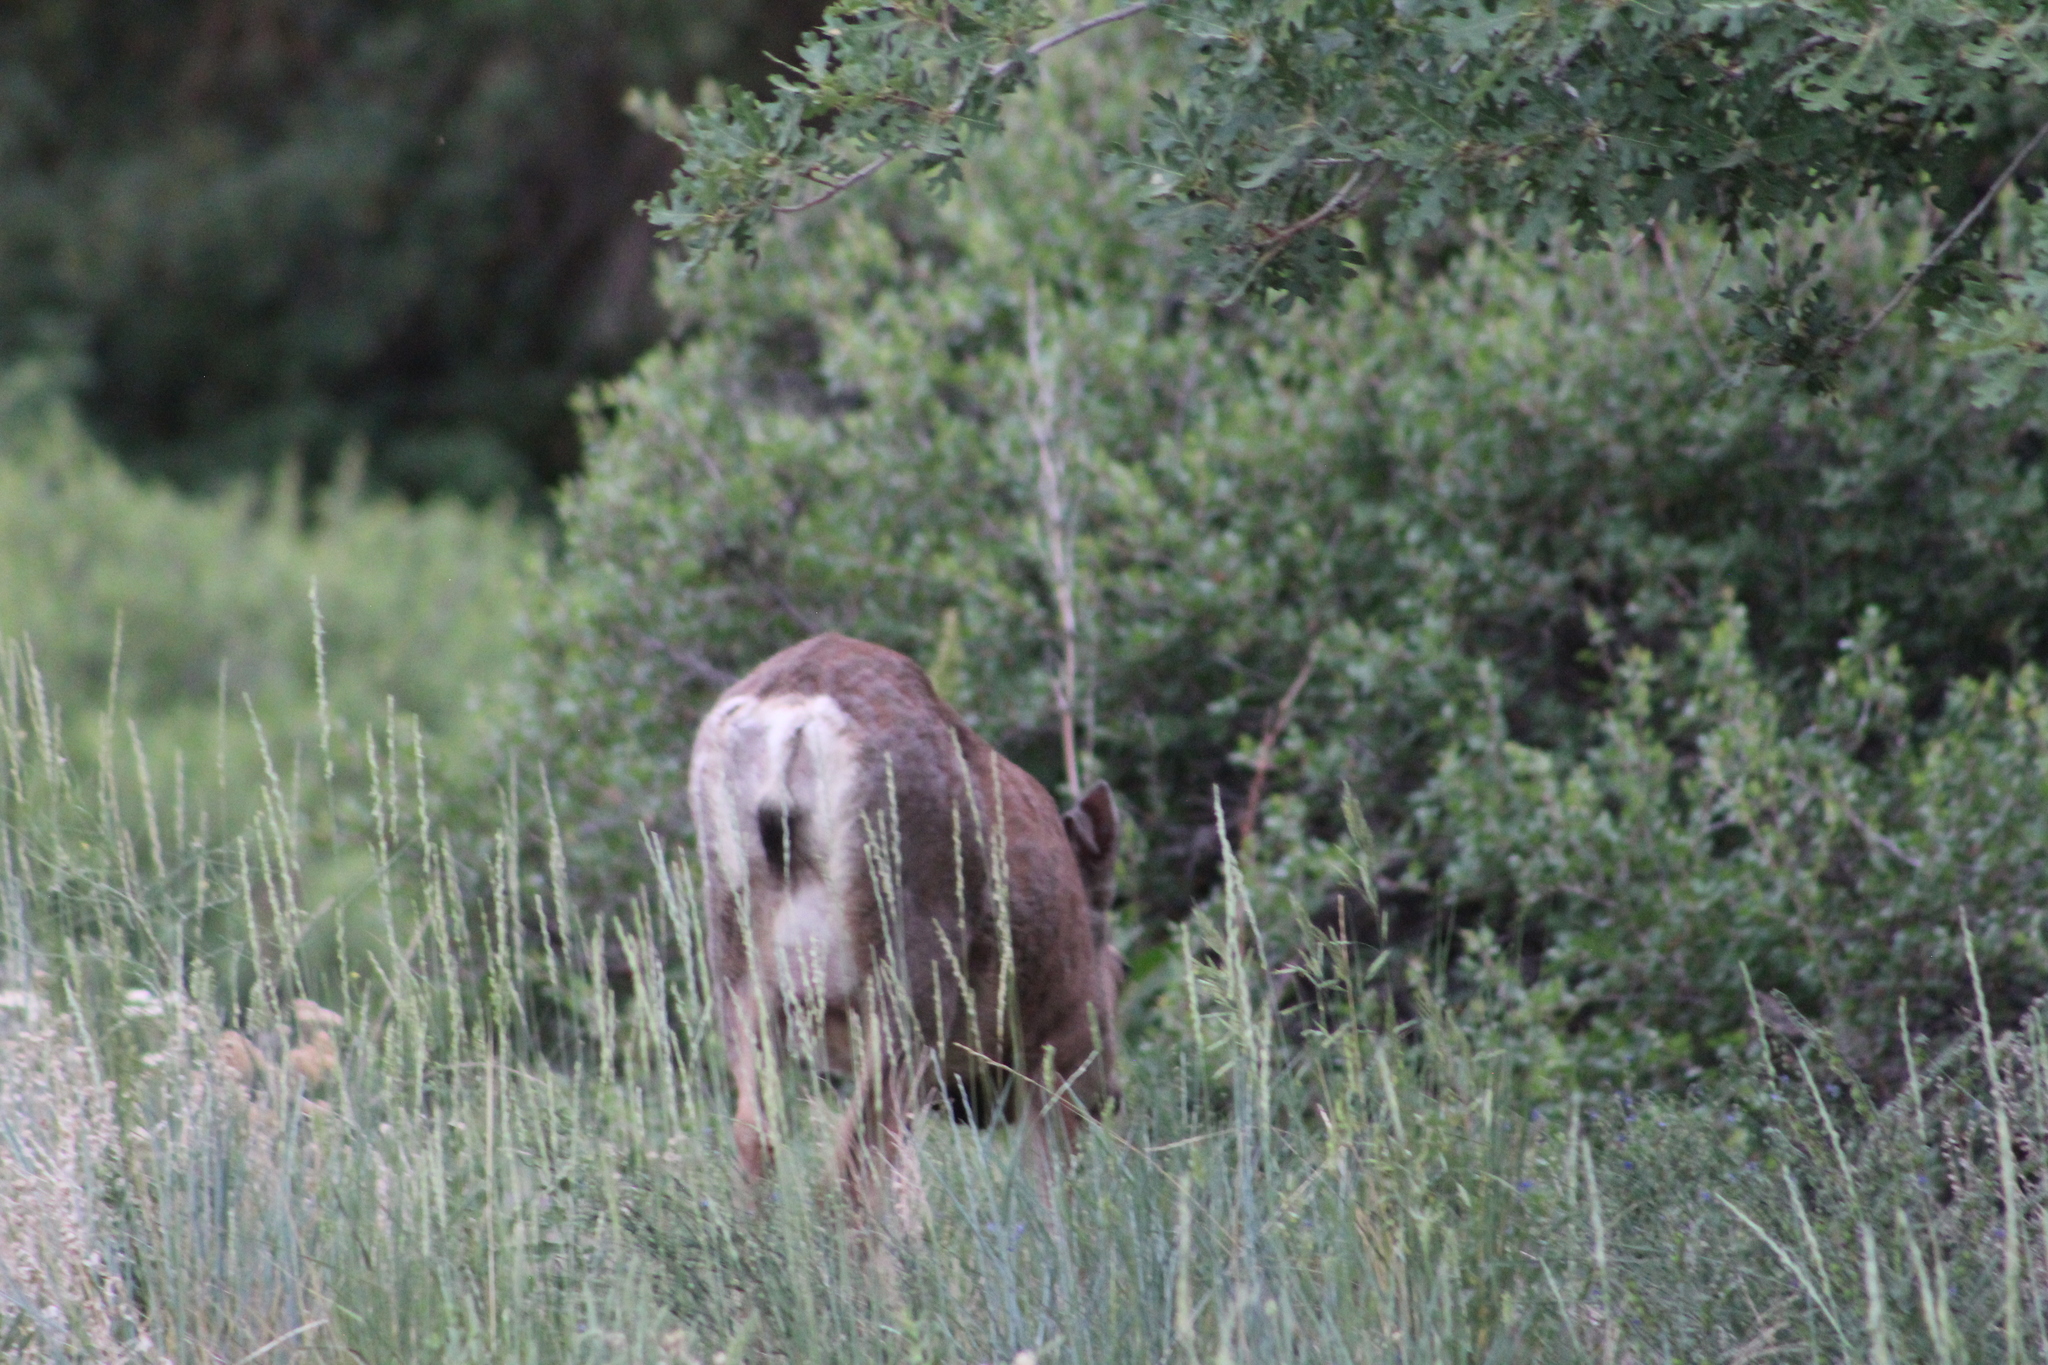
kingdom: Animalia
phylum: Chordata
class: Mammalia
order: Artiodactyla
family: Cervidae
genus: Odocoileus
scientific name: Odocoileus hemionus
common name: Mule deer
